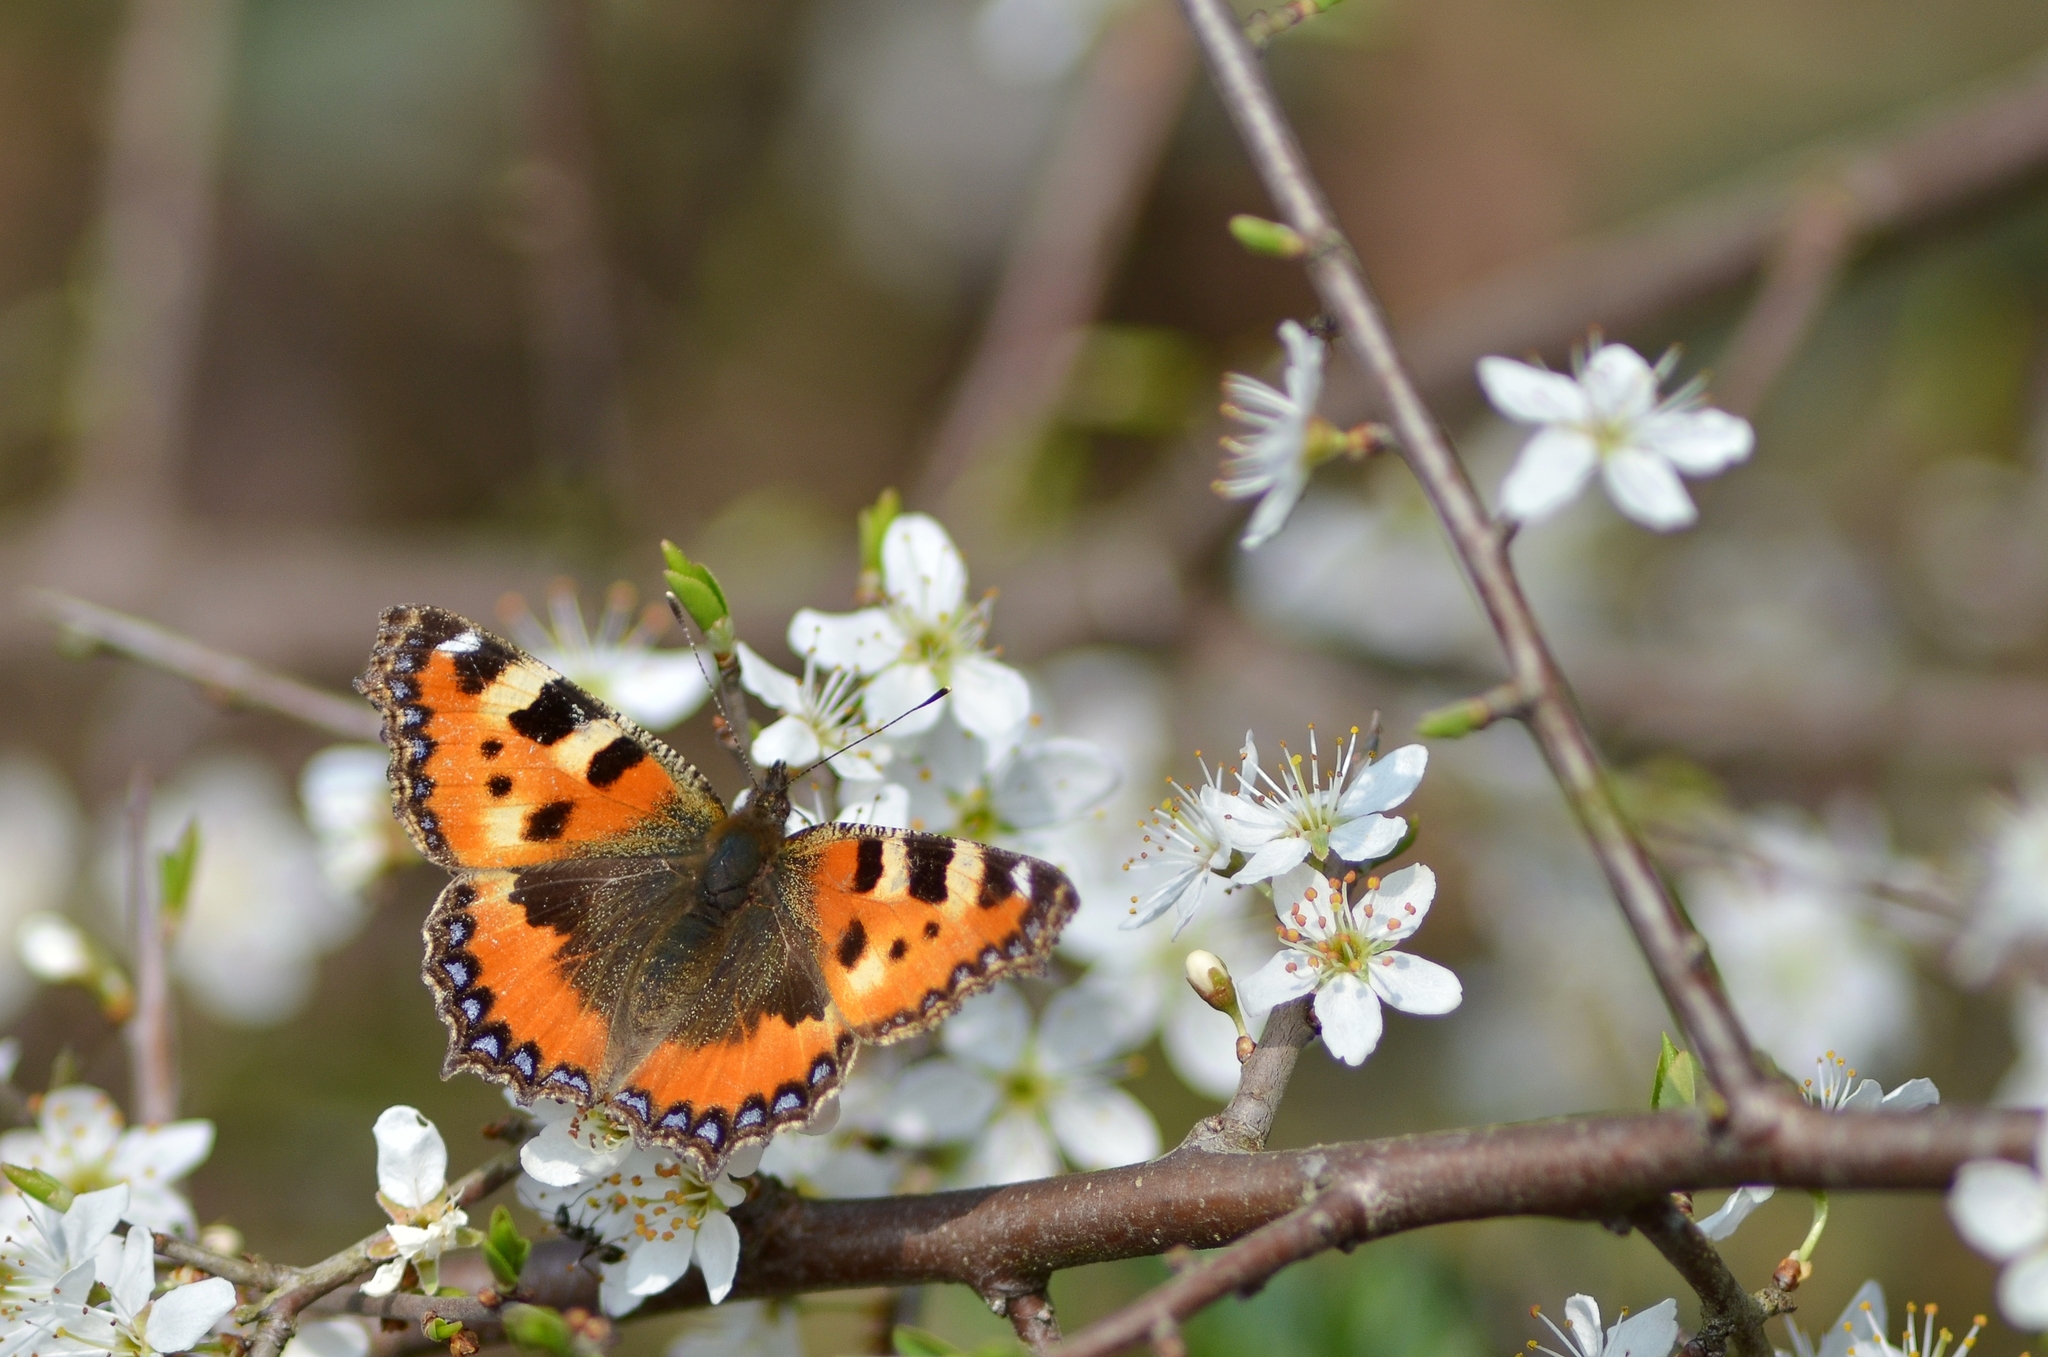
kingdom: Animalia
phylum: Arthropoda
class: Insecta
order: Lepidoptera
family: Nymphalidae
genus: Aglais
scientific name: Aglais urticae
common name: Small tortoiseshell
